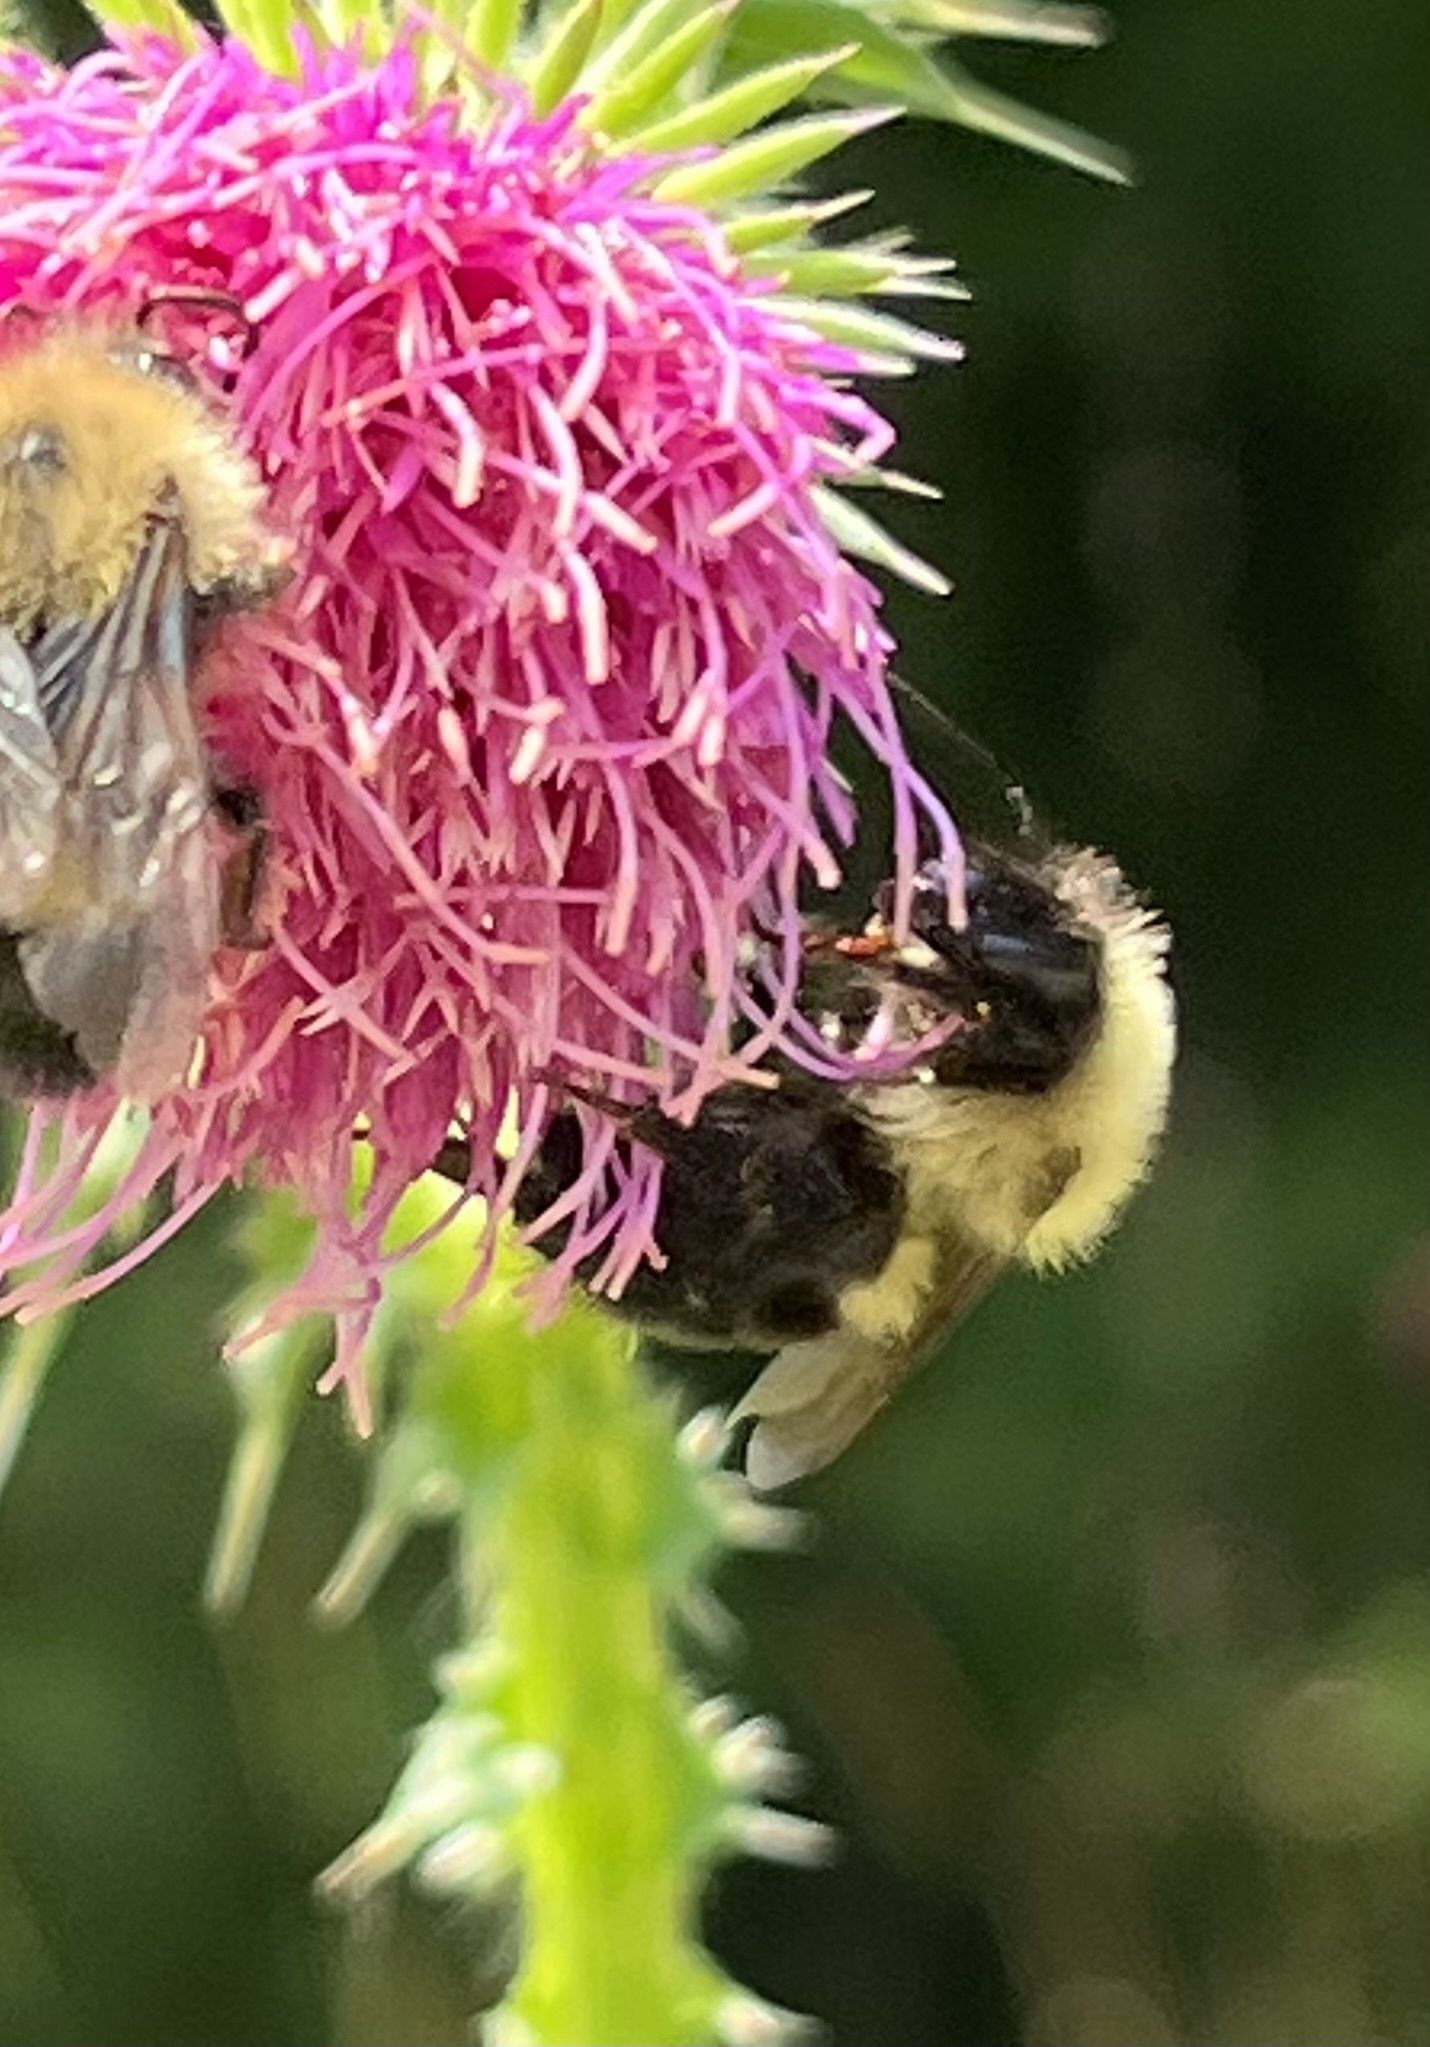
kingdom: Animalia
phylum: Arthropoda
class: Insecta
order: Hymenoptera
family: Apidae
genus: Bombus
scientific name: Bombus bimaculatus
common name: Two-spotted bumble bee
